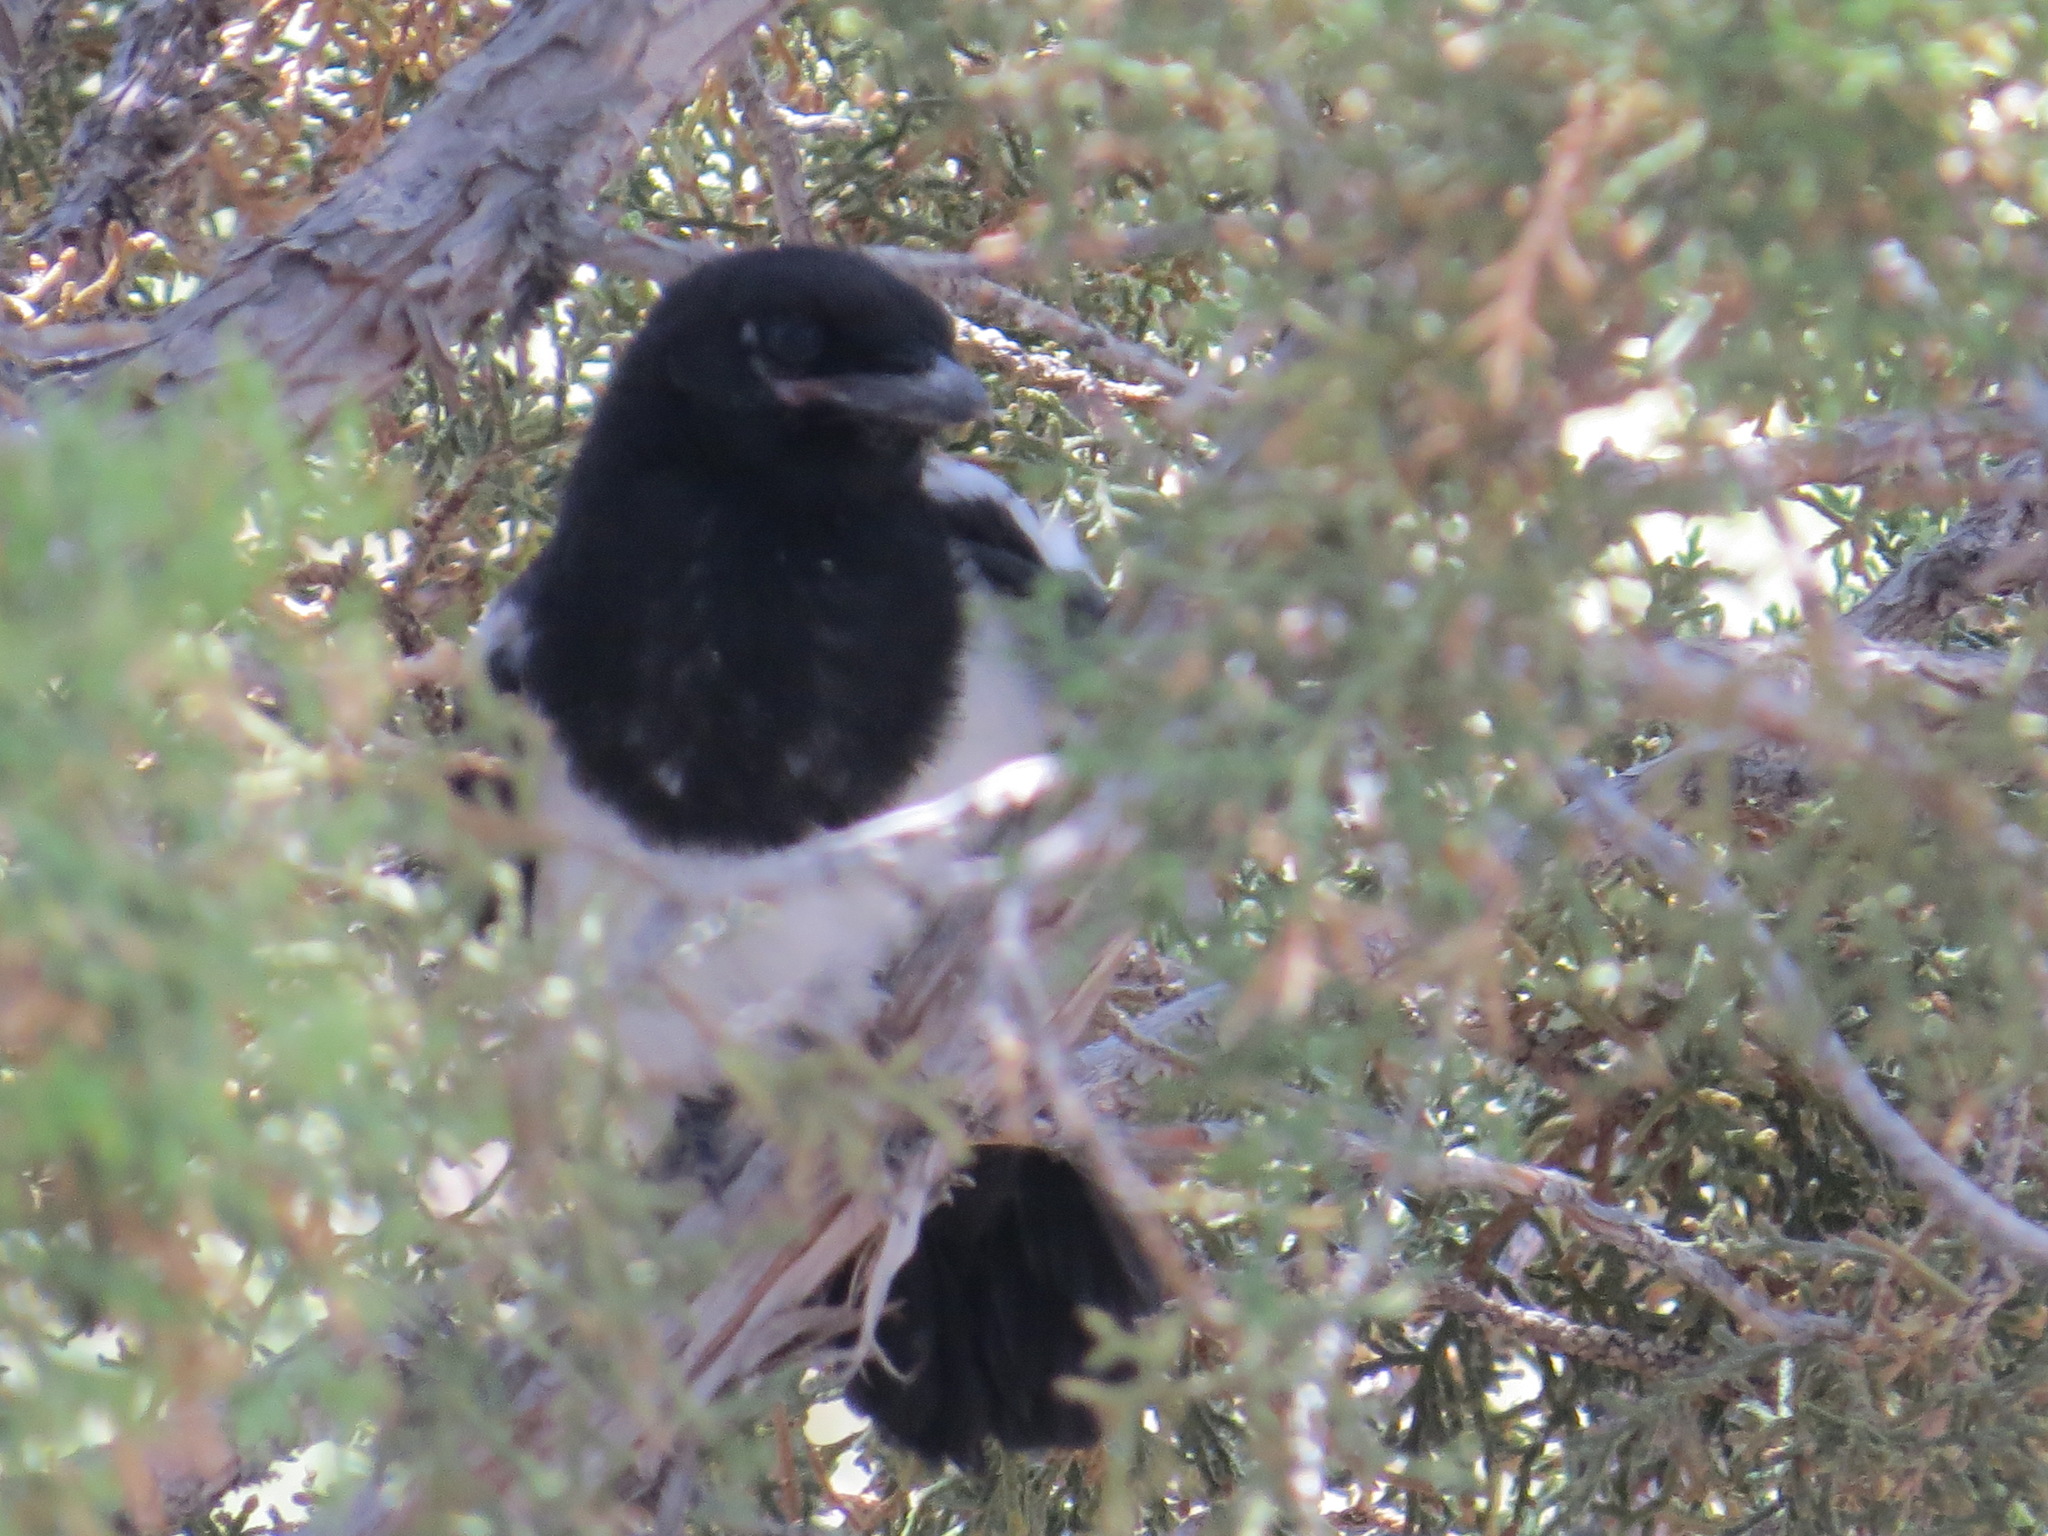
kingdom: Animalia
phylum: Chordata
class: Aves
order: Passeriformes
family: Corvidae
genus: Pica
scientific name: Pica hudsonia
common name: Black-billed magpie
